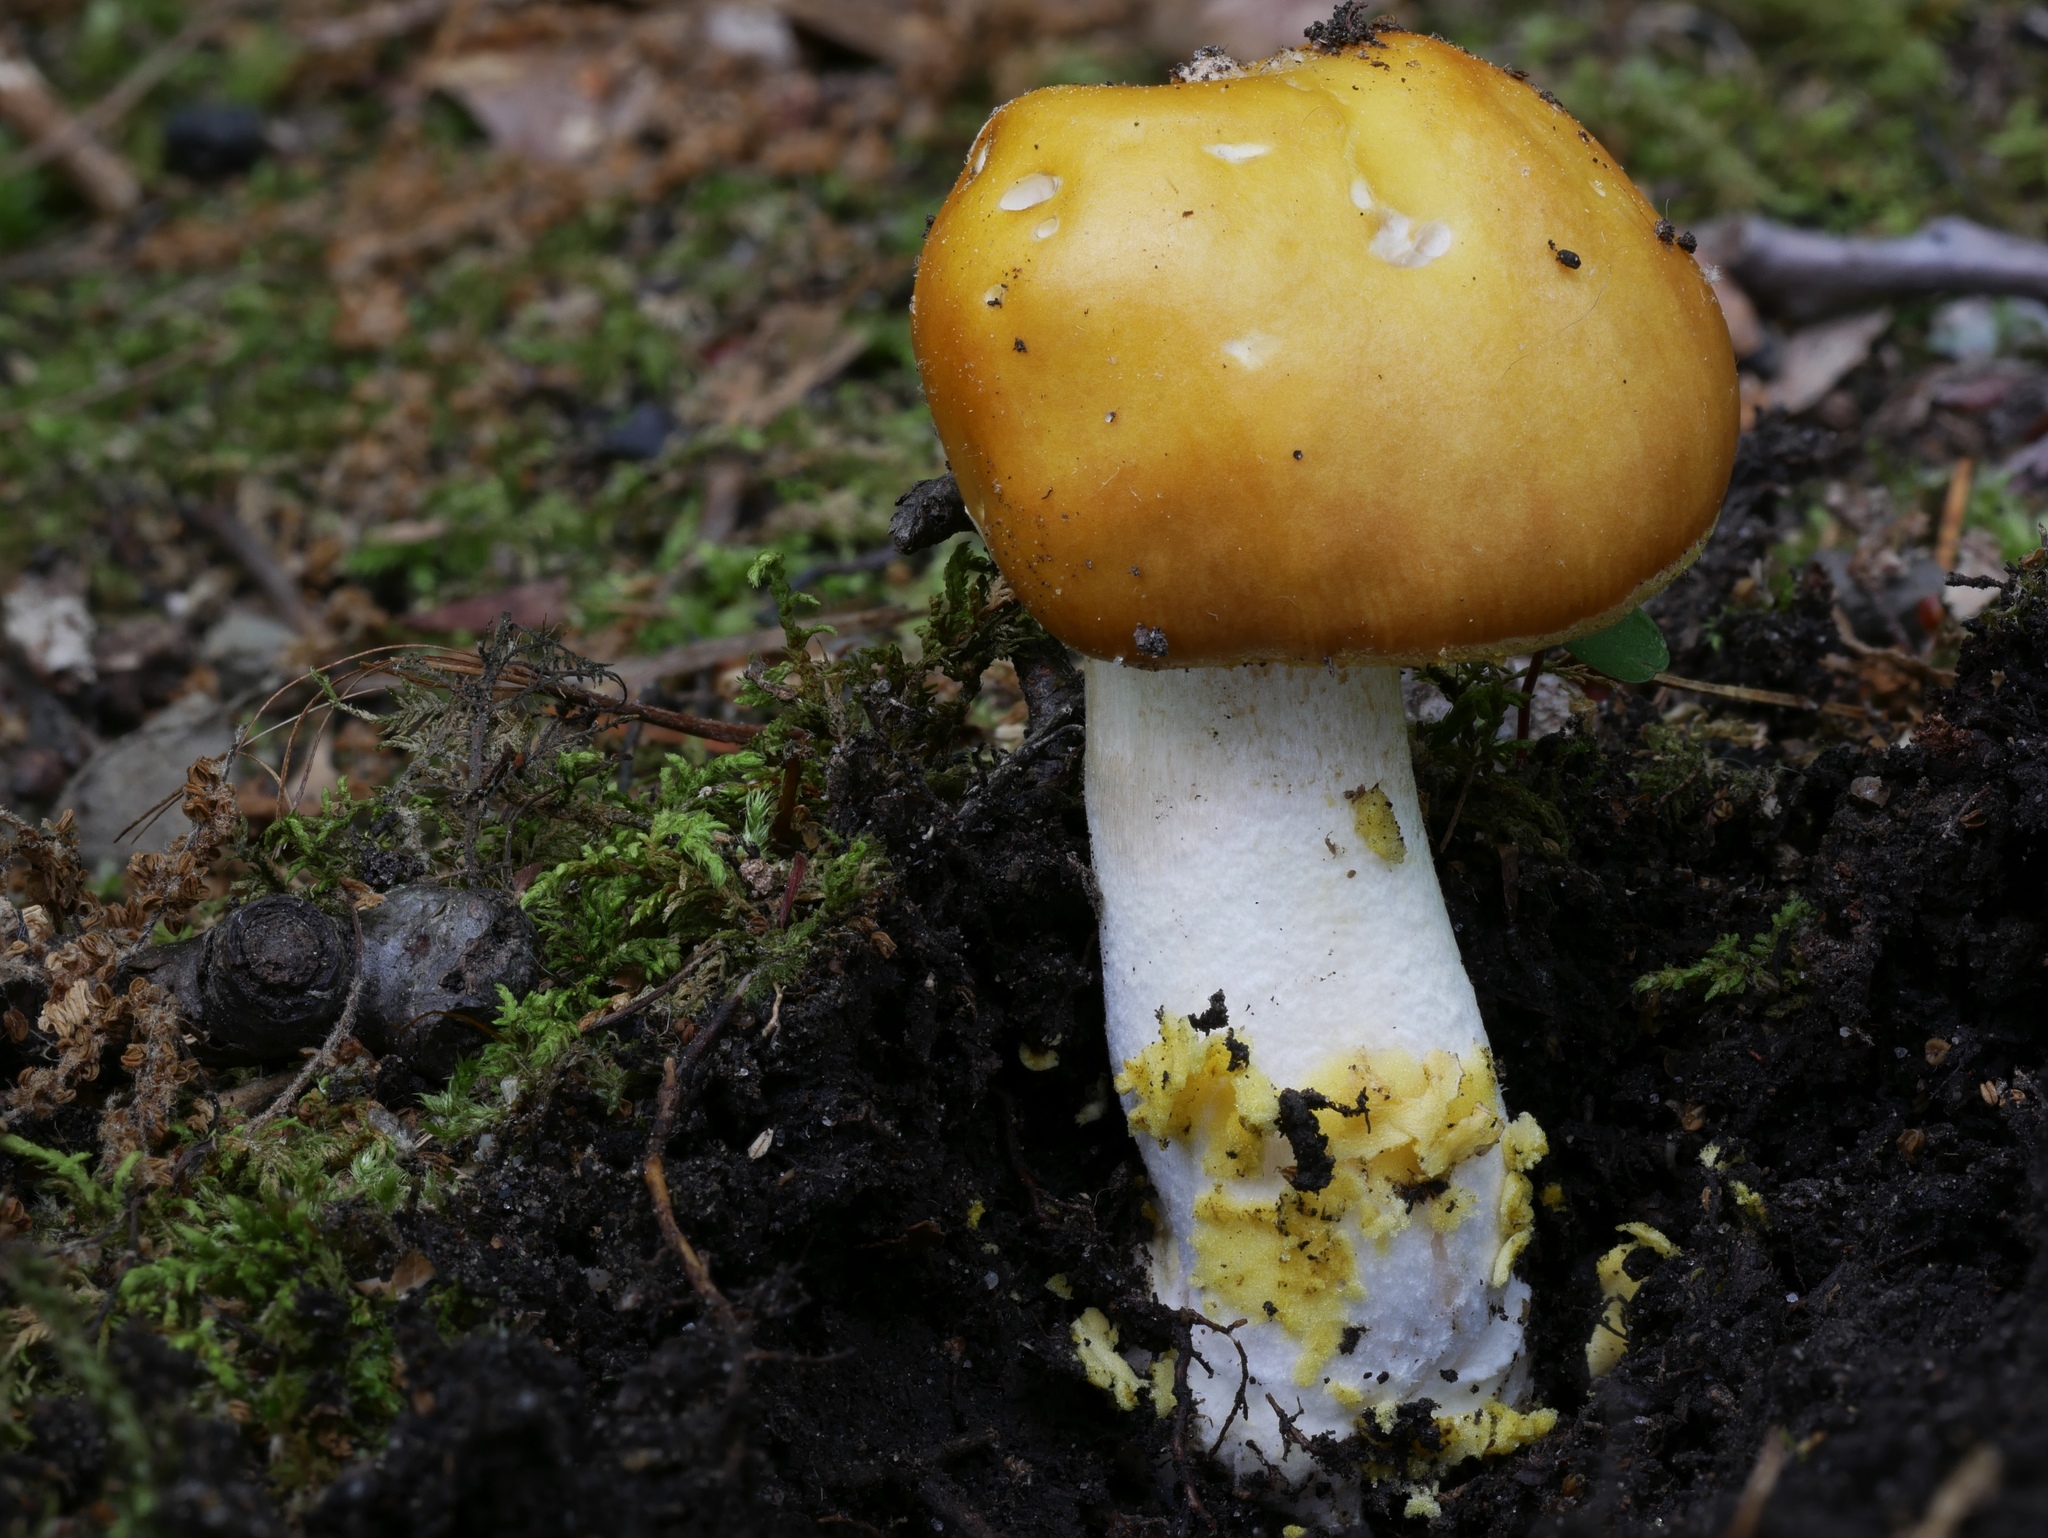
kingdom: Fungi
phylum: Basidiomycota
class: Agaricomycetes
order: Agaricales
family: Amanitaceae
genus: Amanita
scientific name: Amanita flavorubens
